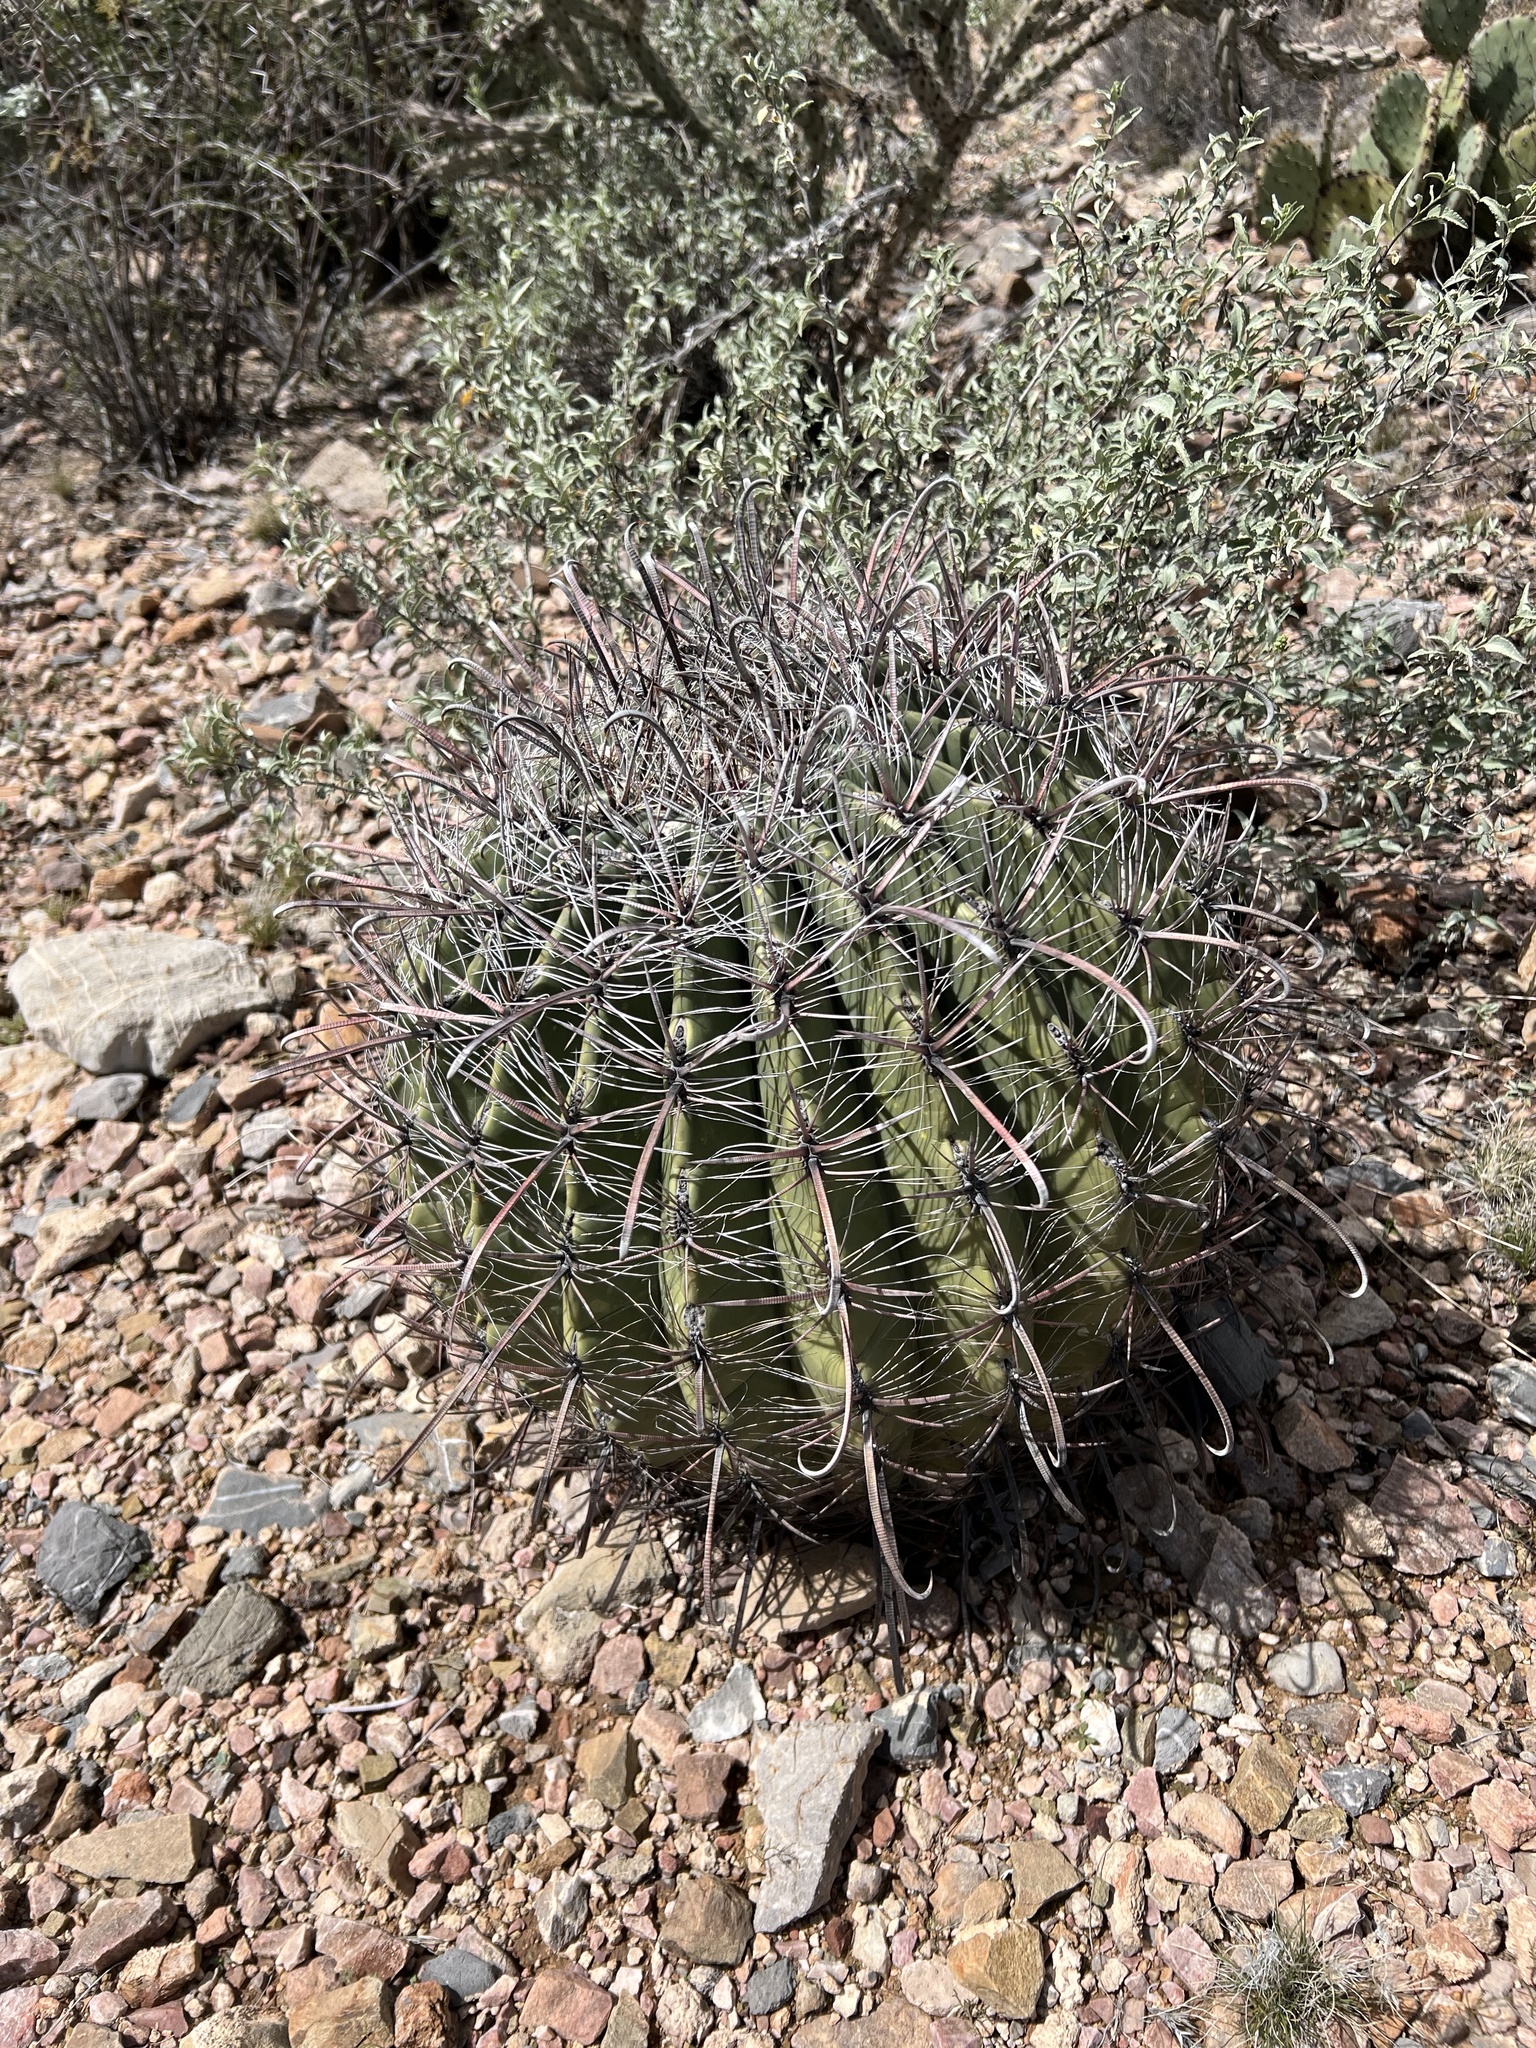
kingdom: Plantae
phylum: Tracheophyta
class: Magnoliopsida
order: Caryophyllales
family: Cactaceae
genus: Ferocactus
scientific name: Ferocactus wislizeni
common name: Candy barrel cactus
